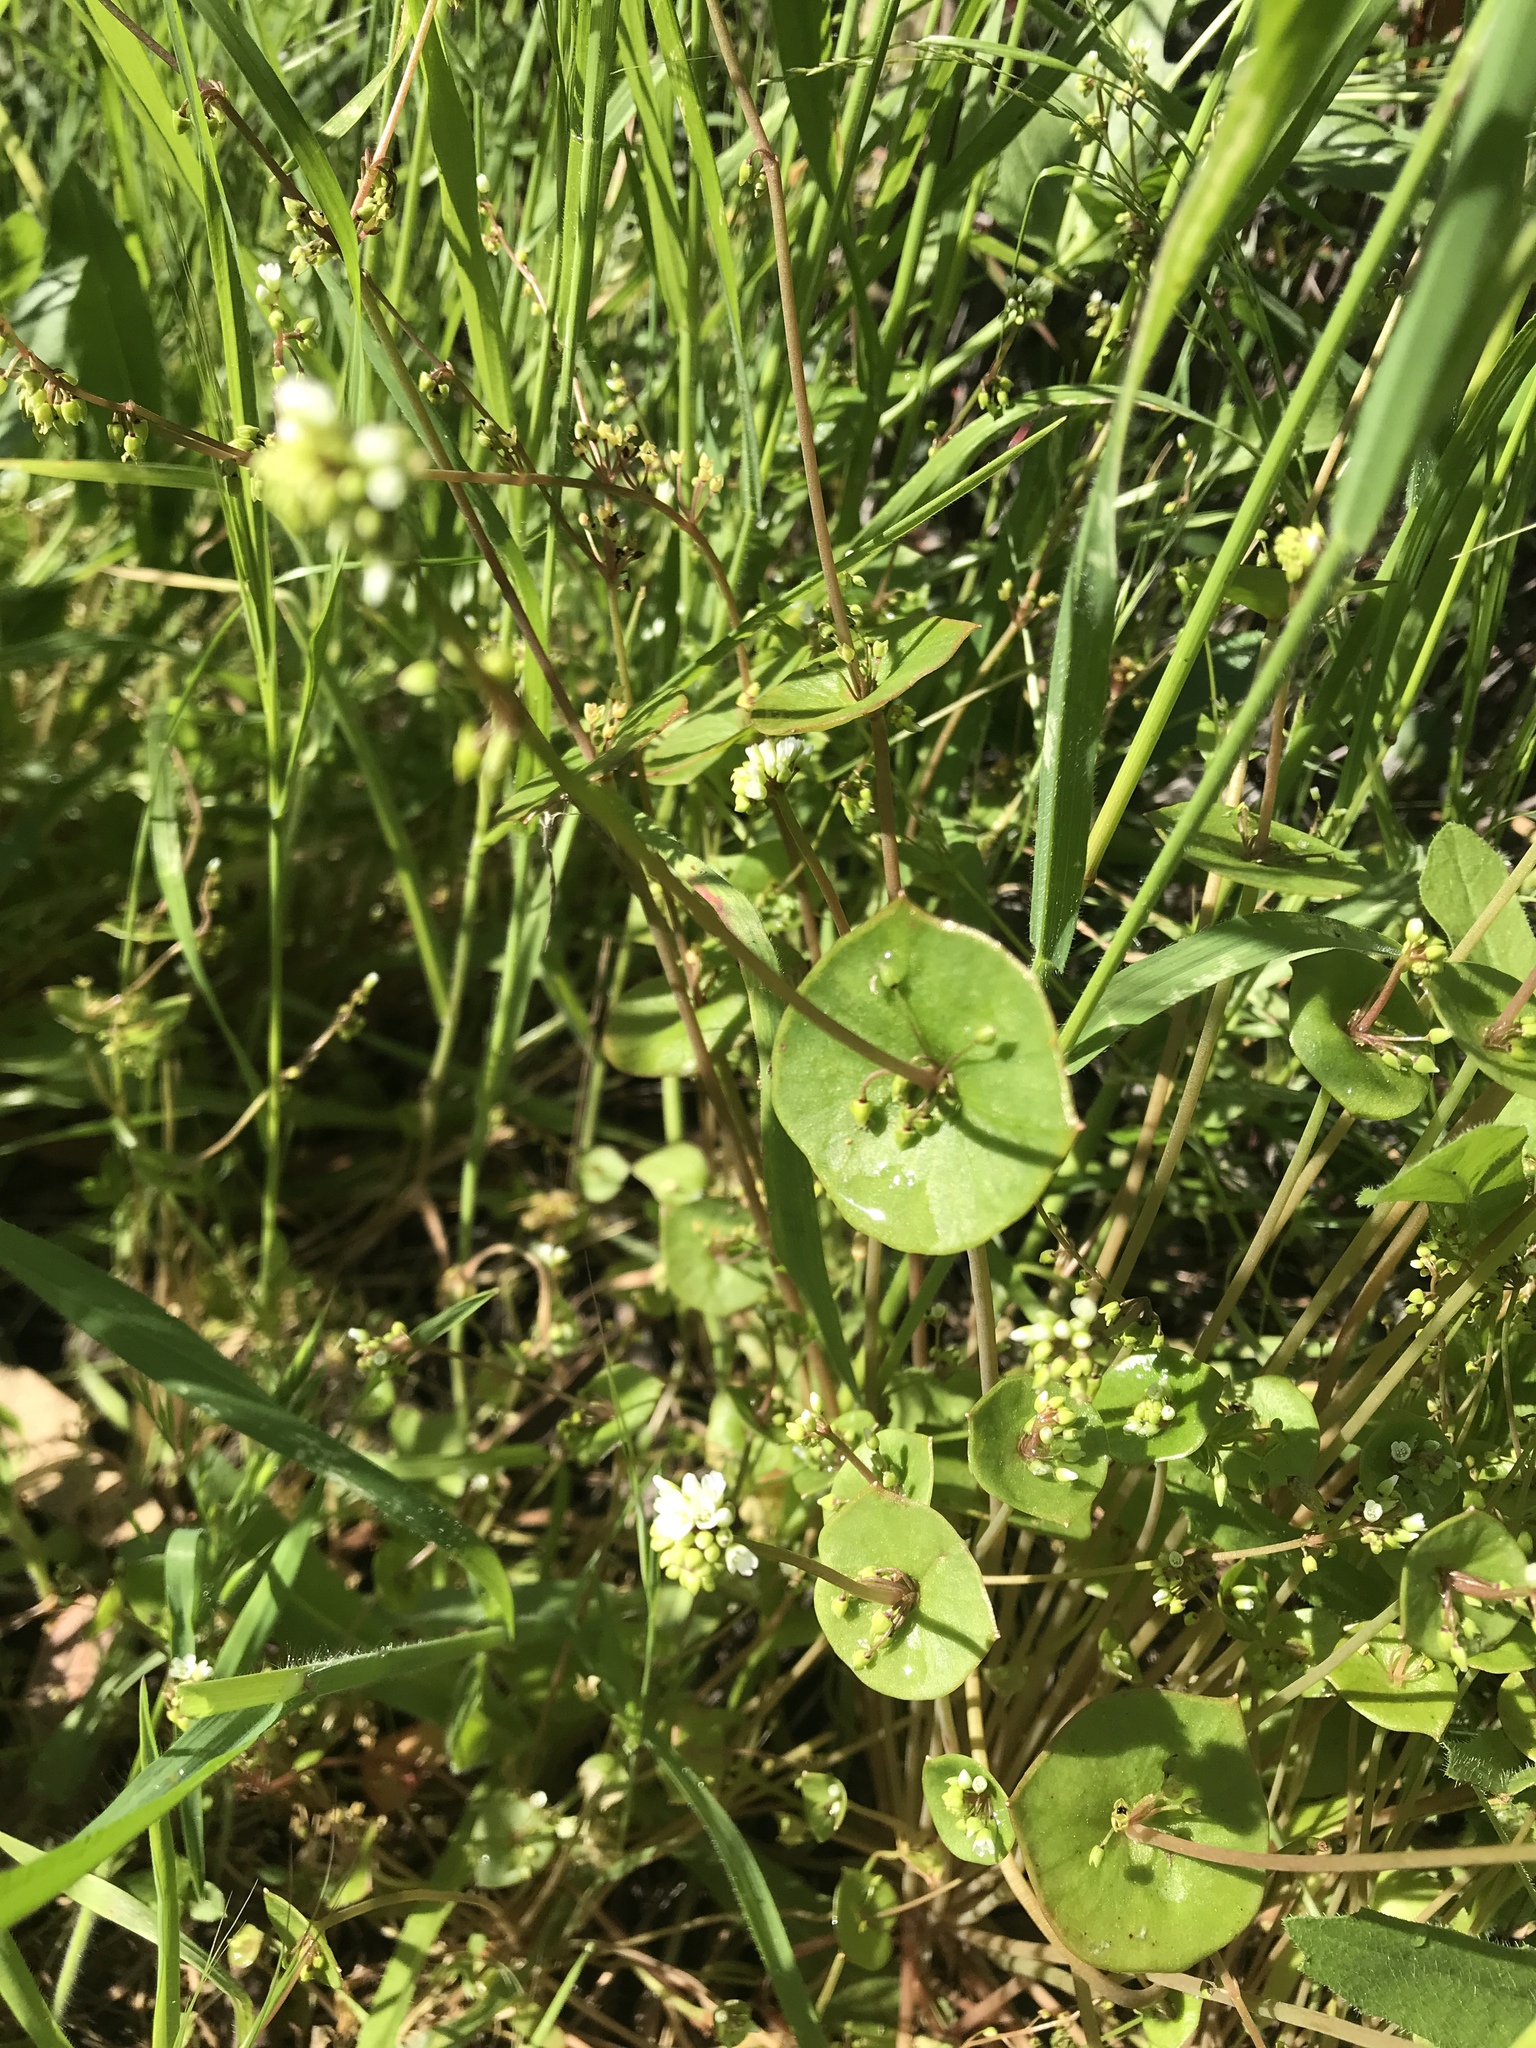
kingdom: Plantae
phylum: Tracheophyta
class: Magnoliopsida
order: Caryophyllales
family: Montiaceae
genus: Claytonia
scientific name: Claytonia perfoliata
